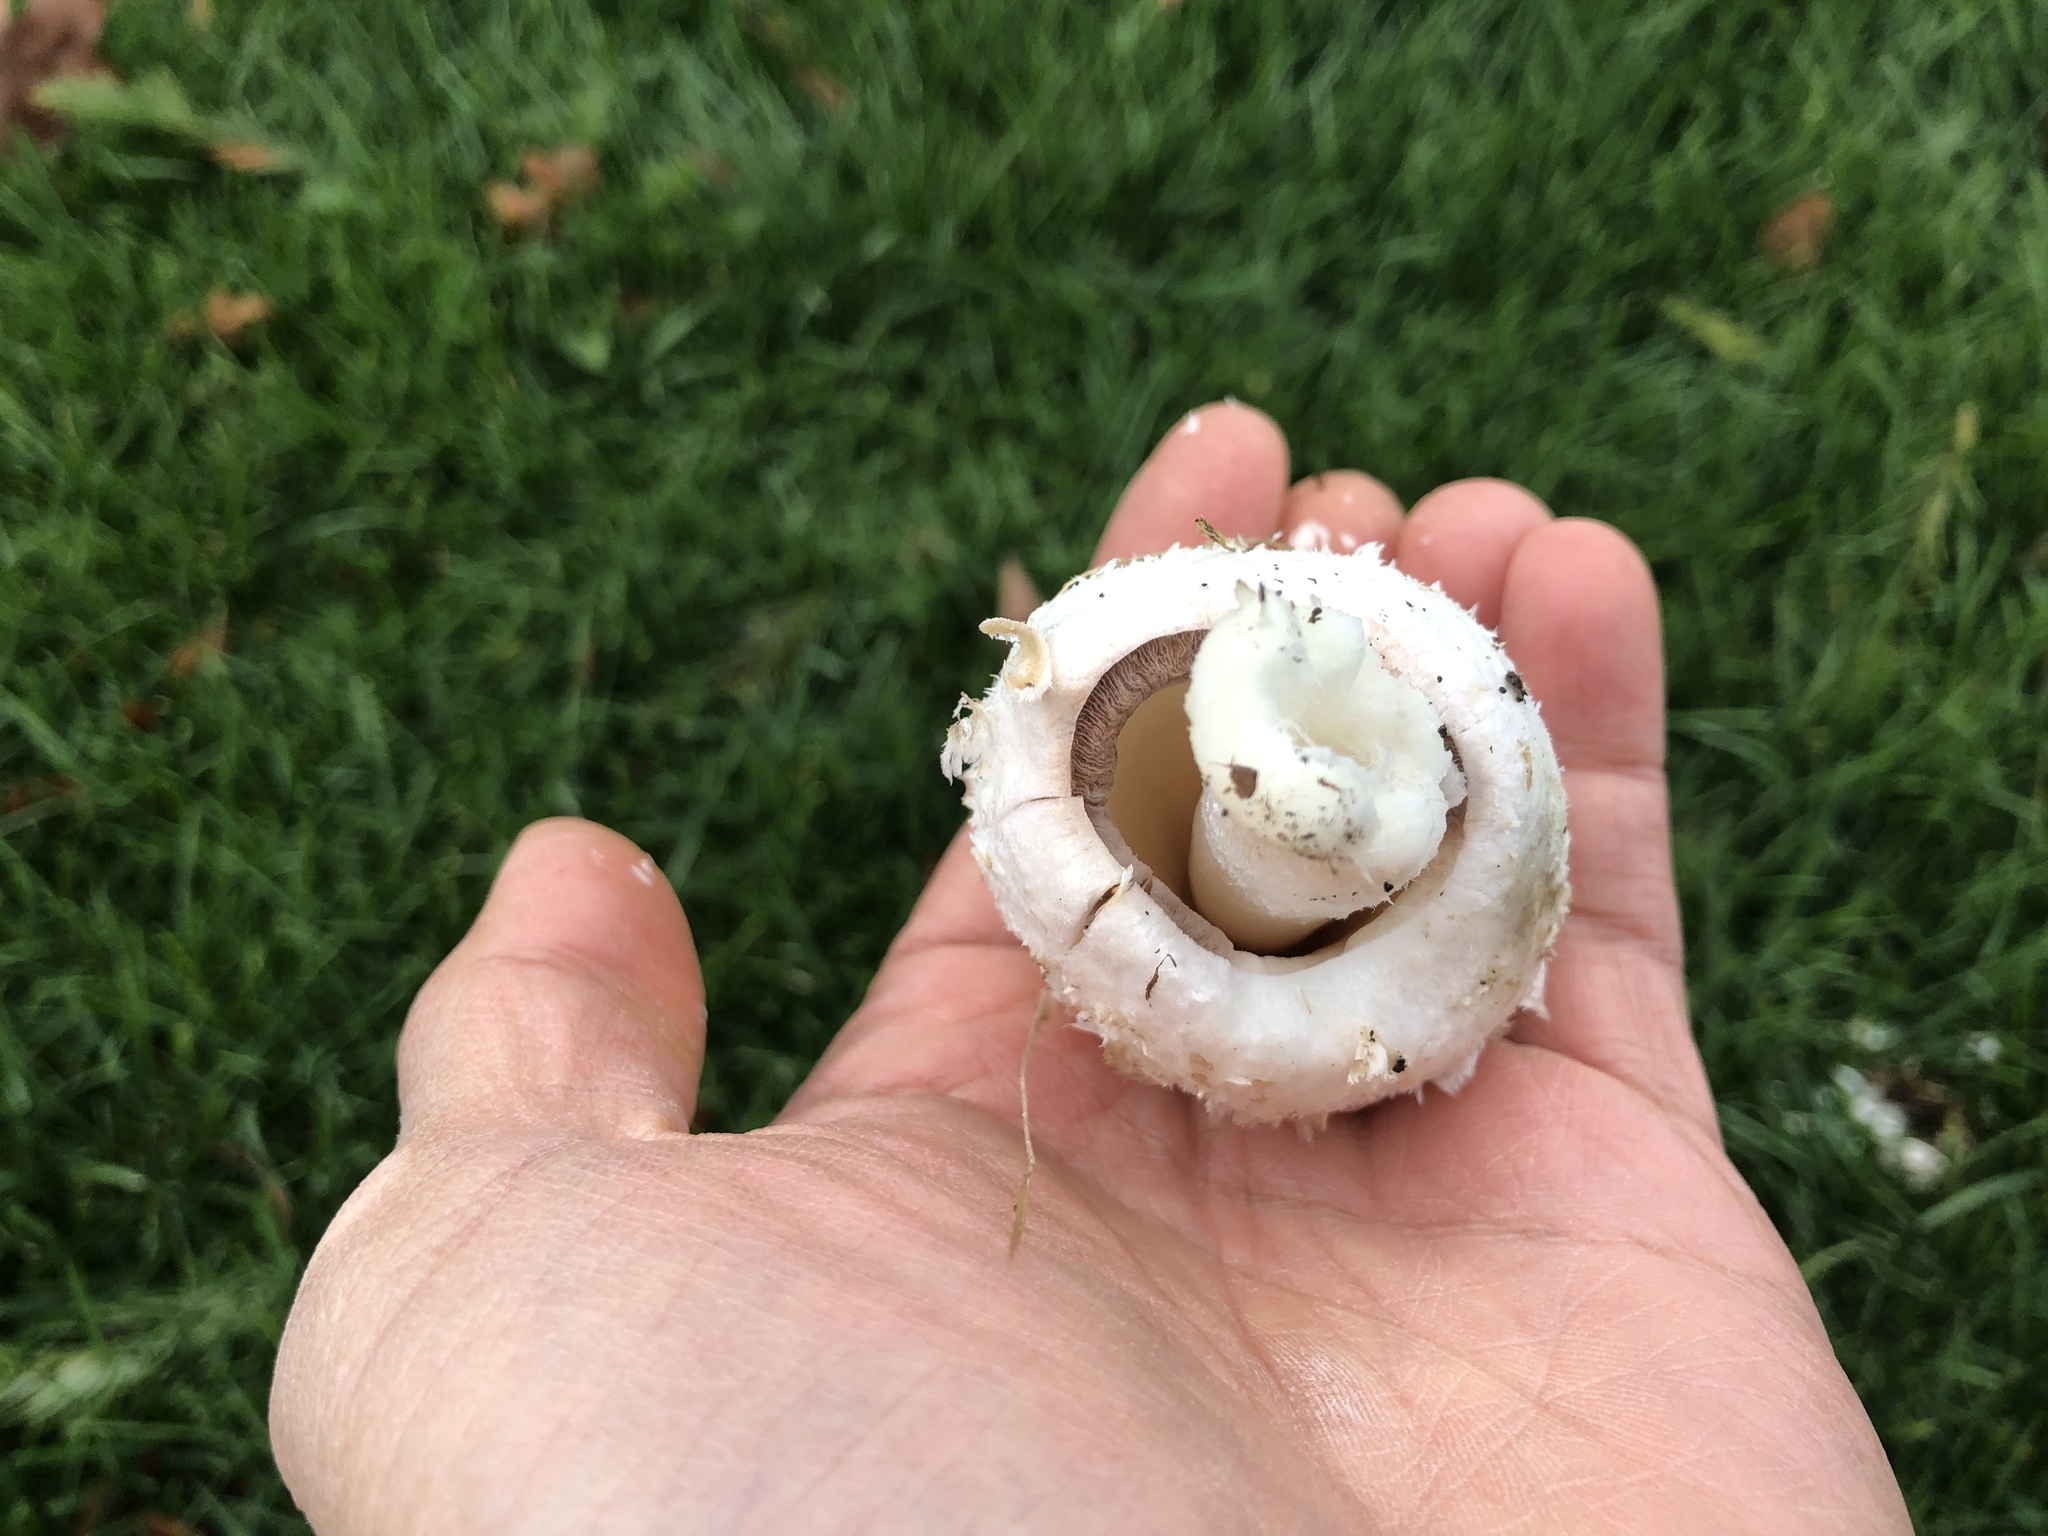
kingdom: Fungi
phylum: Basidiomycota
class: Agaricomycetes
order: Agaricales
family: Agaricaceae
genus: Coprinus
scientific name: Coprinus comatus
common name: Lawyer's wig
